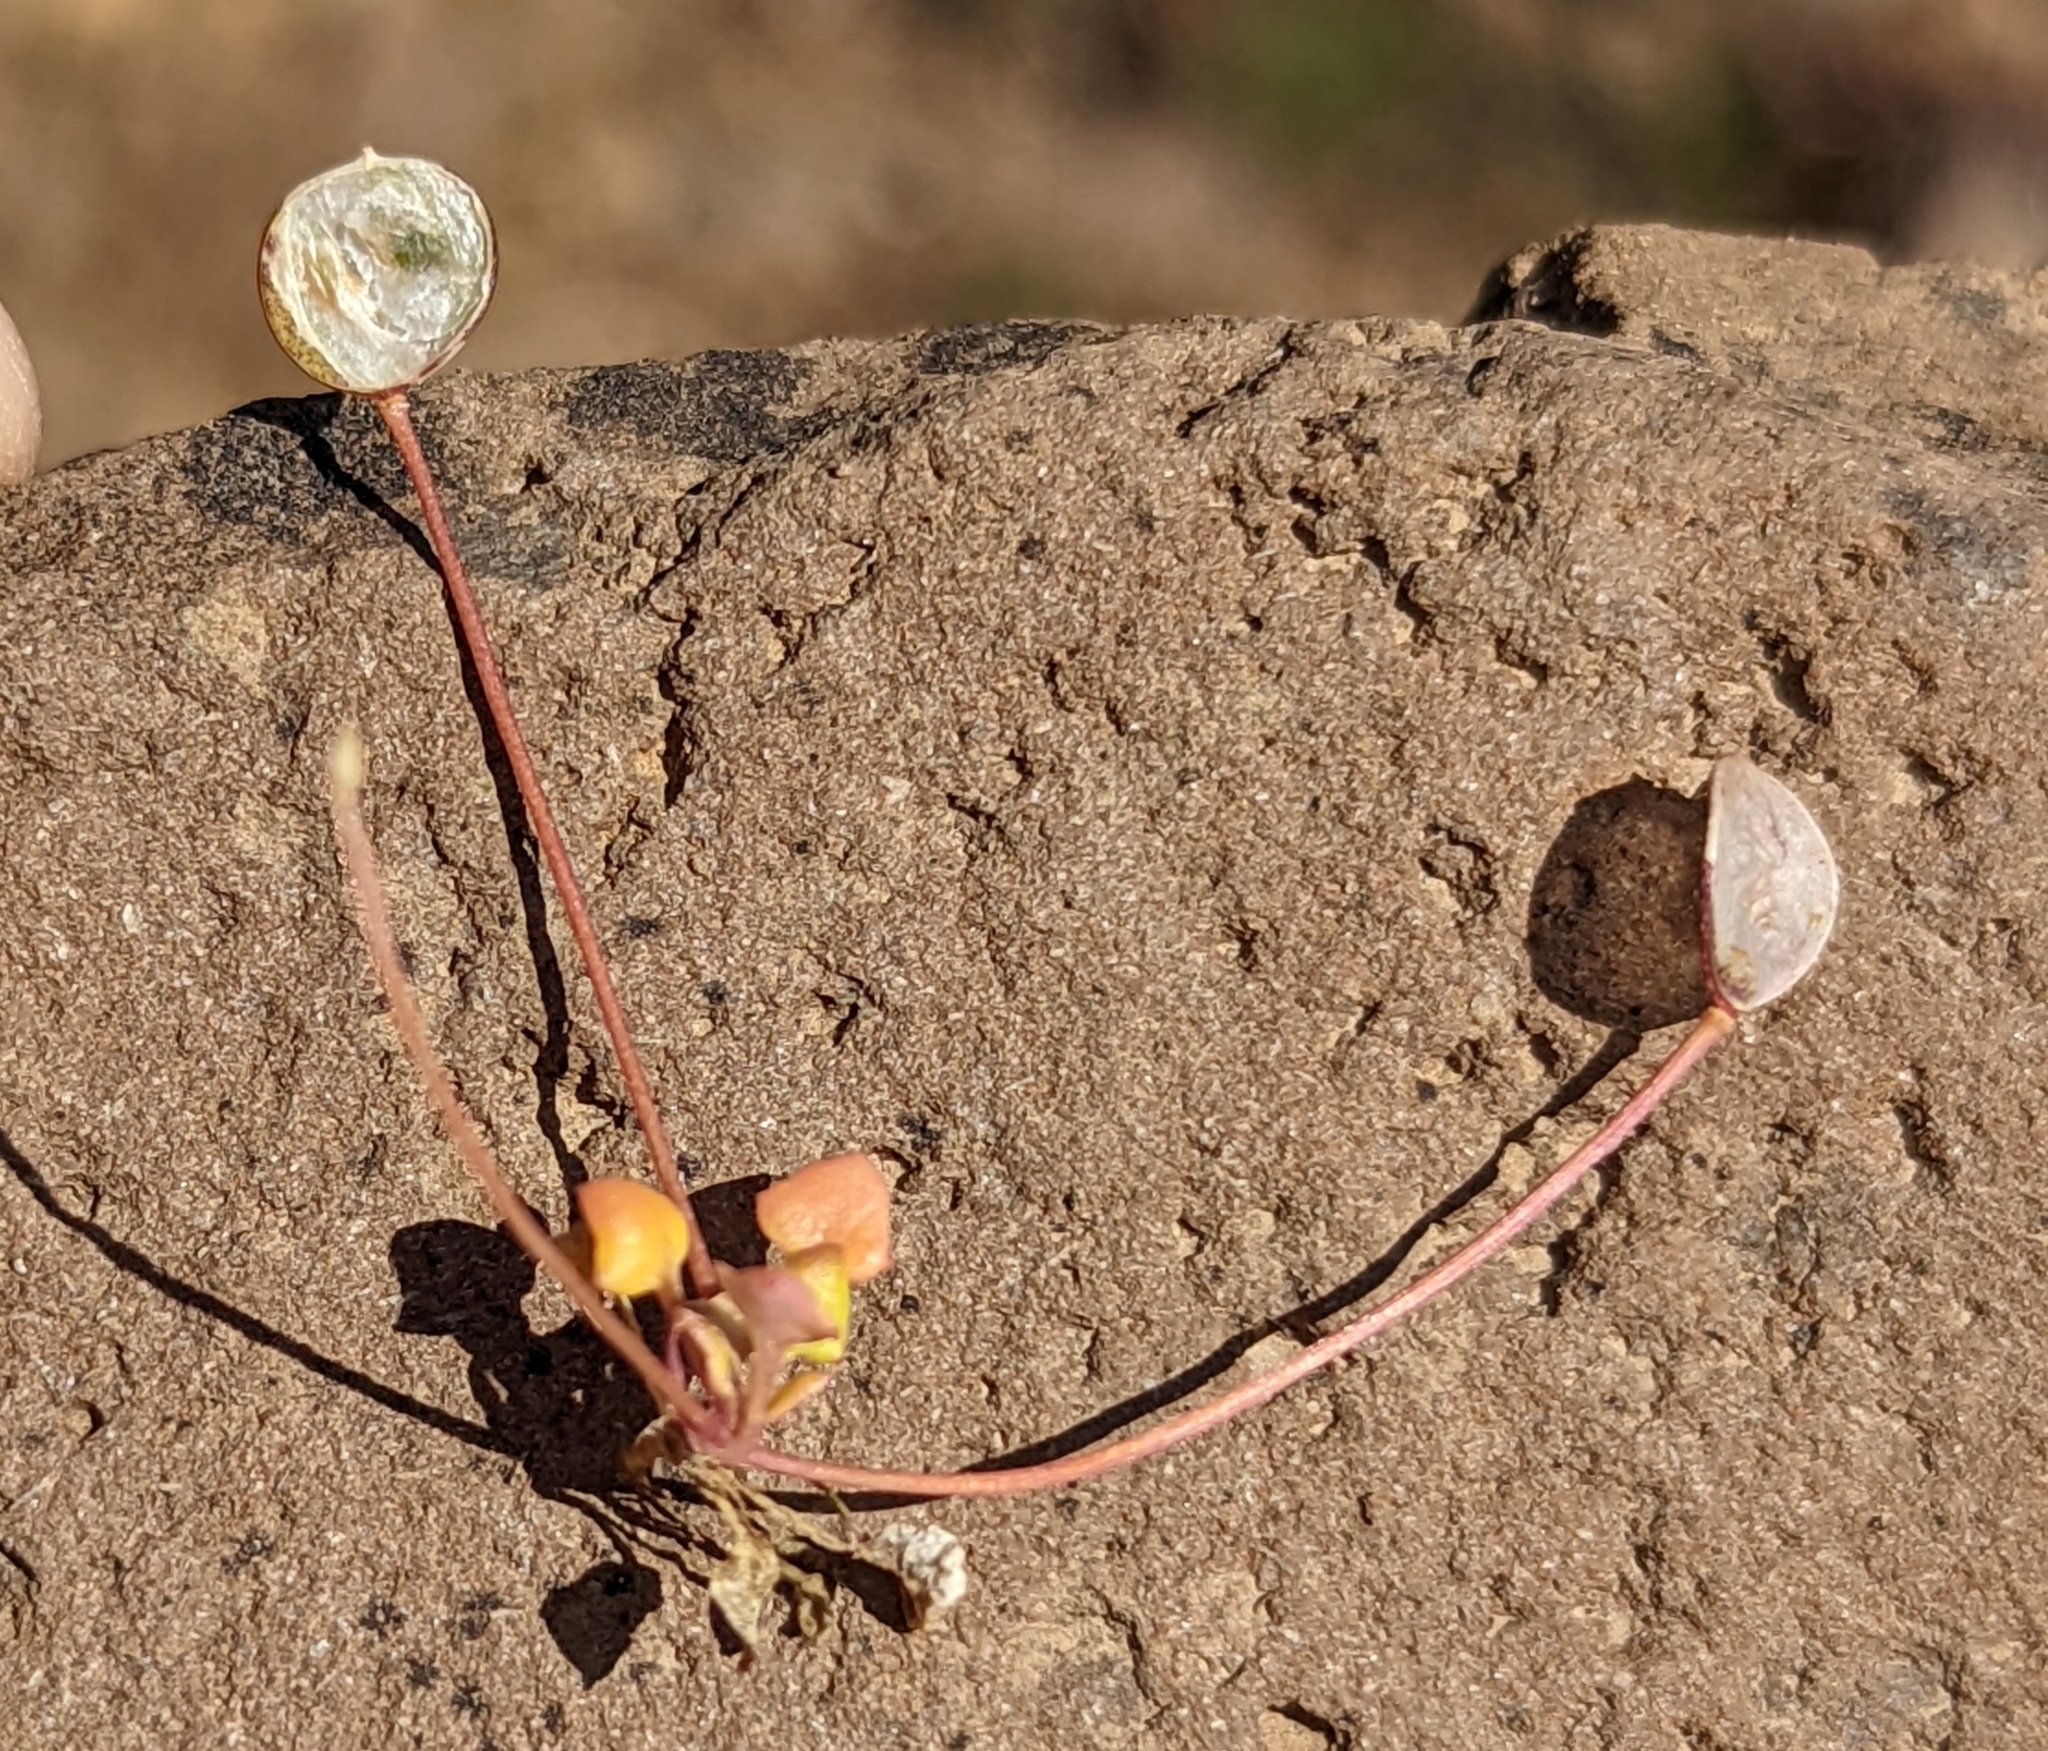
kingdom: Plantae
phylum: Tracheophyta
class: Magnoliopsida
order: Brassicales
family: Brassicaceae
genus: Idahoa
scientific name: Idahoa scapigera
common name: Scalepod
